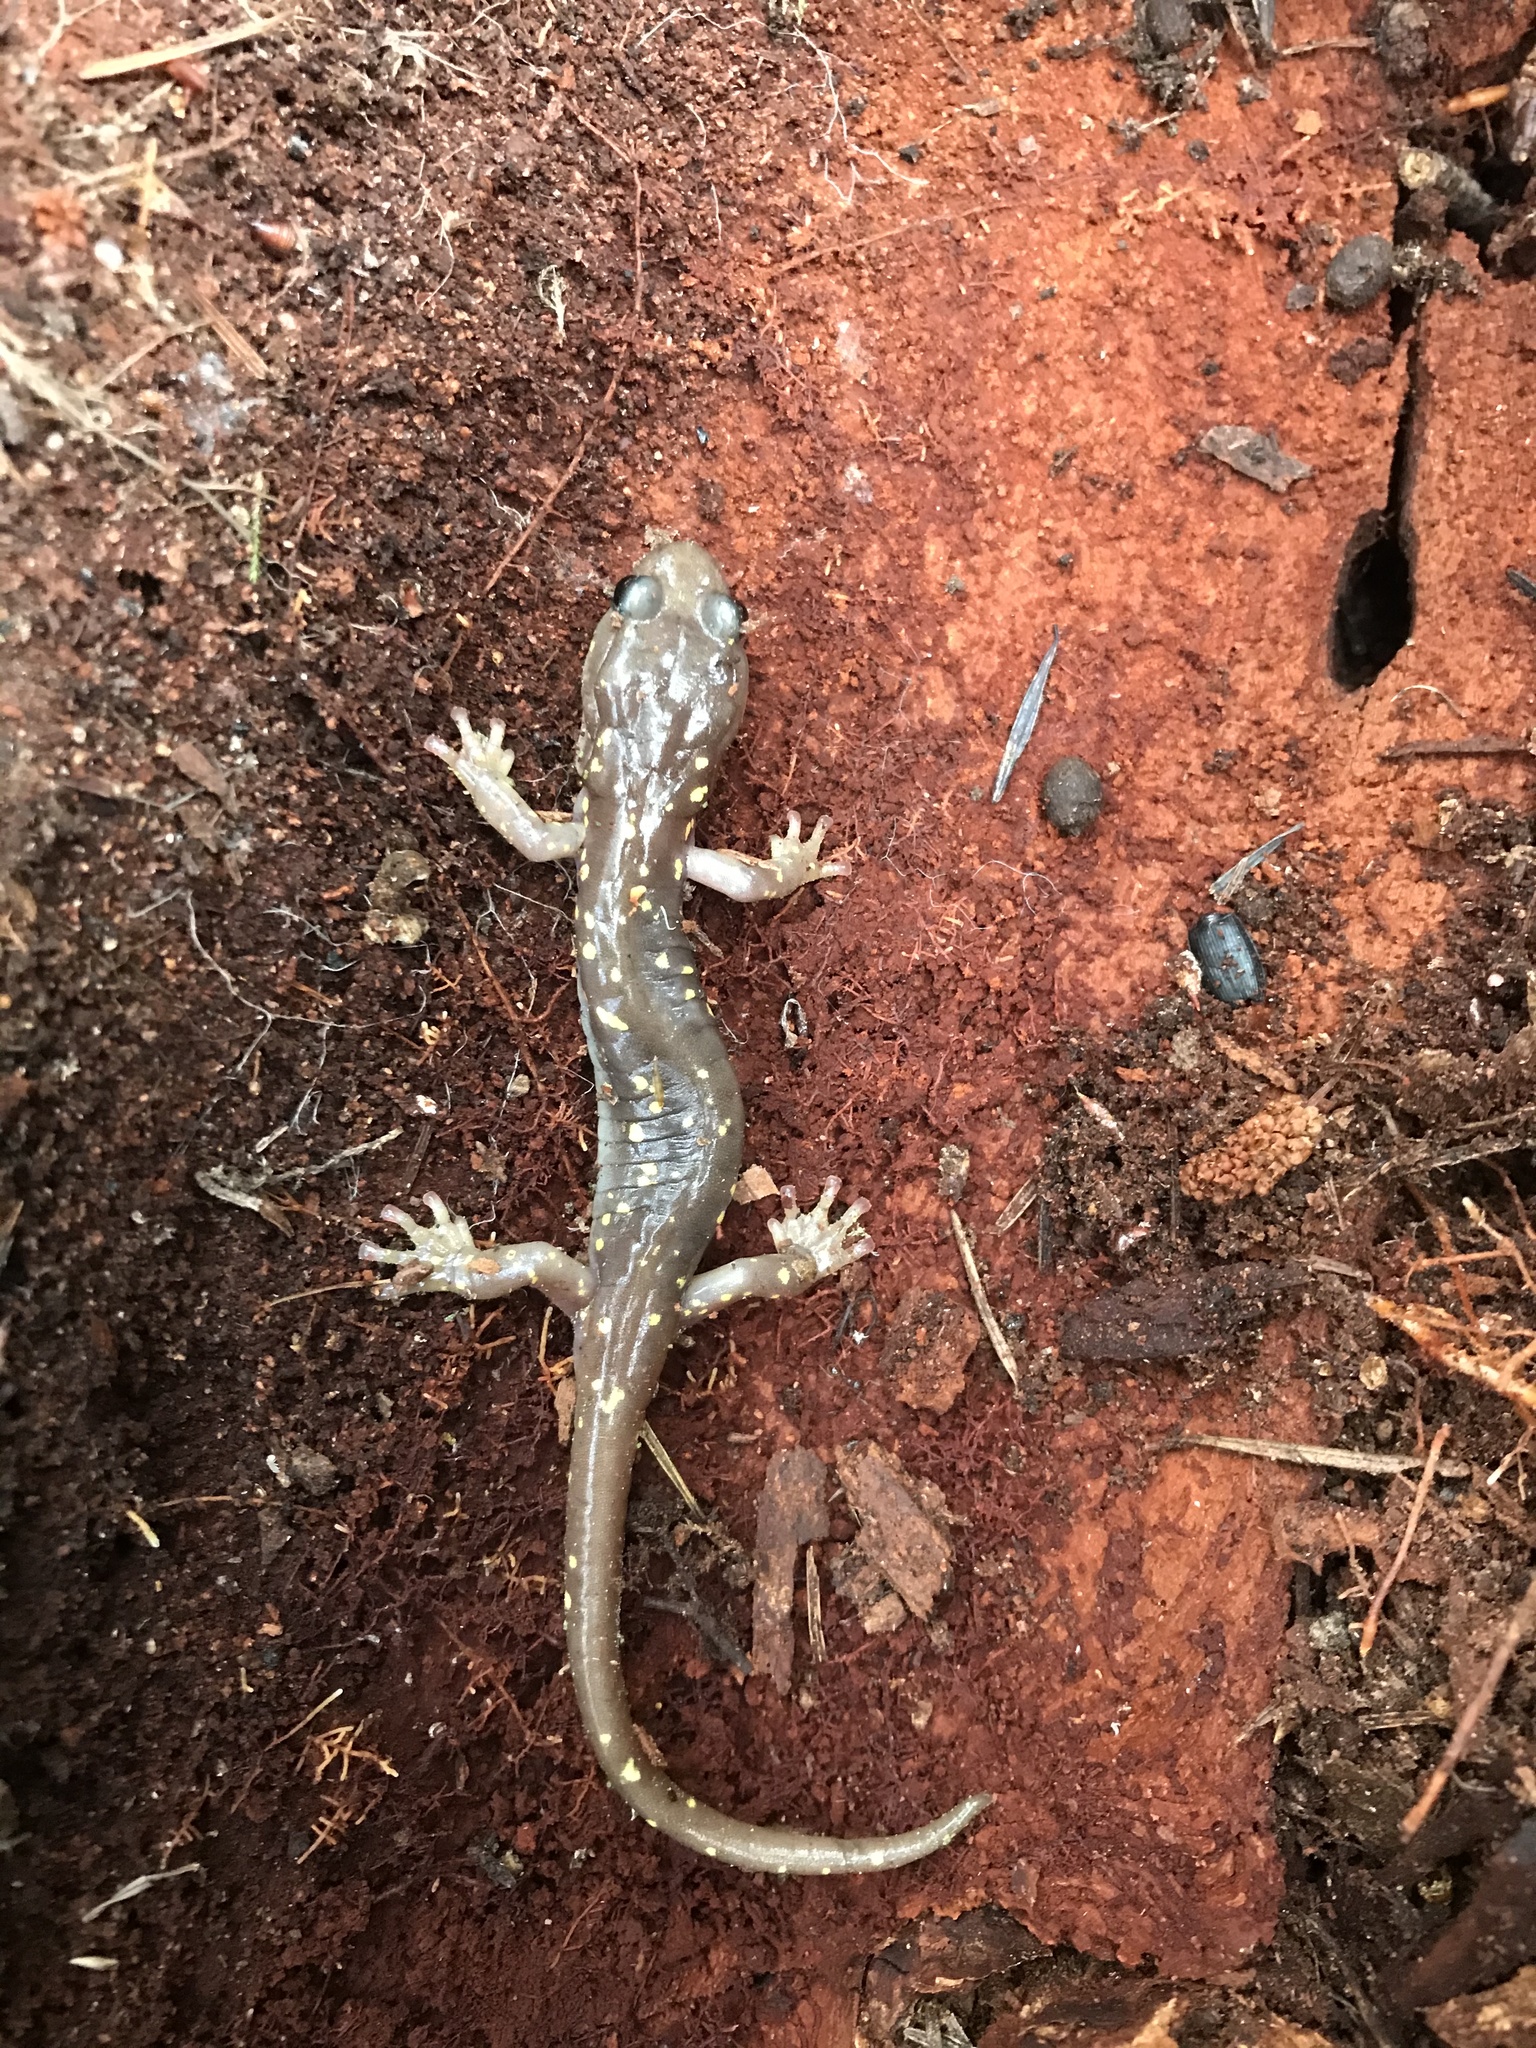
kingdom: Animalia
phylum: Chordata
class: Amphibia
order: Caudata
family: Plethodontidae
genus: Aneides
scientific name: Aneides lugubris
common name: Arboreal salamander
